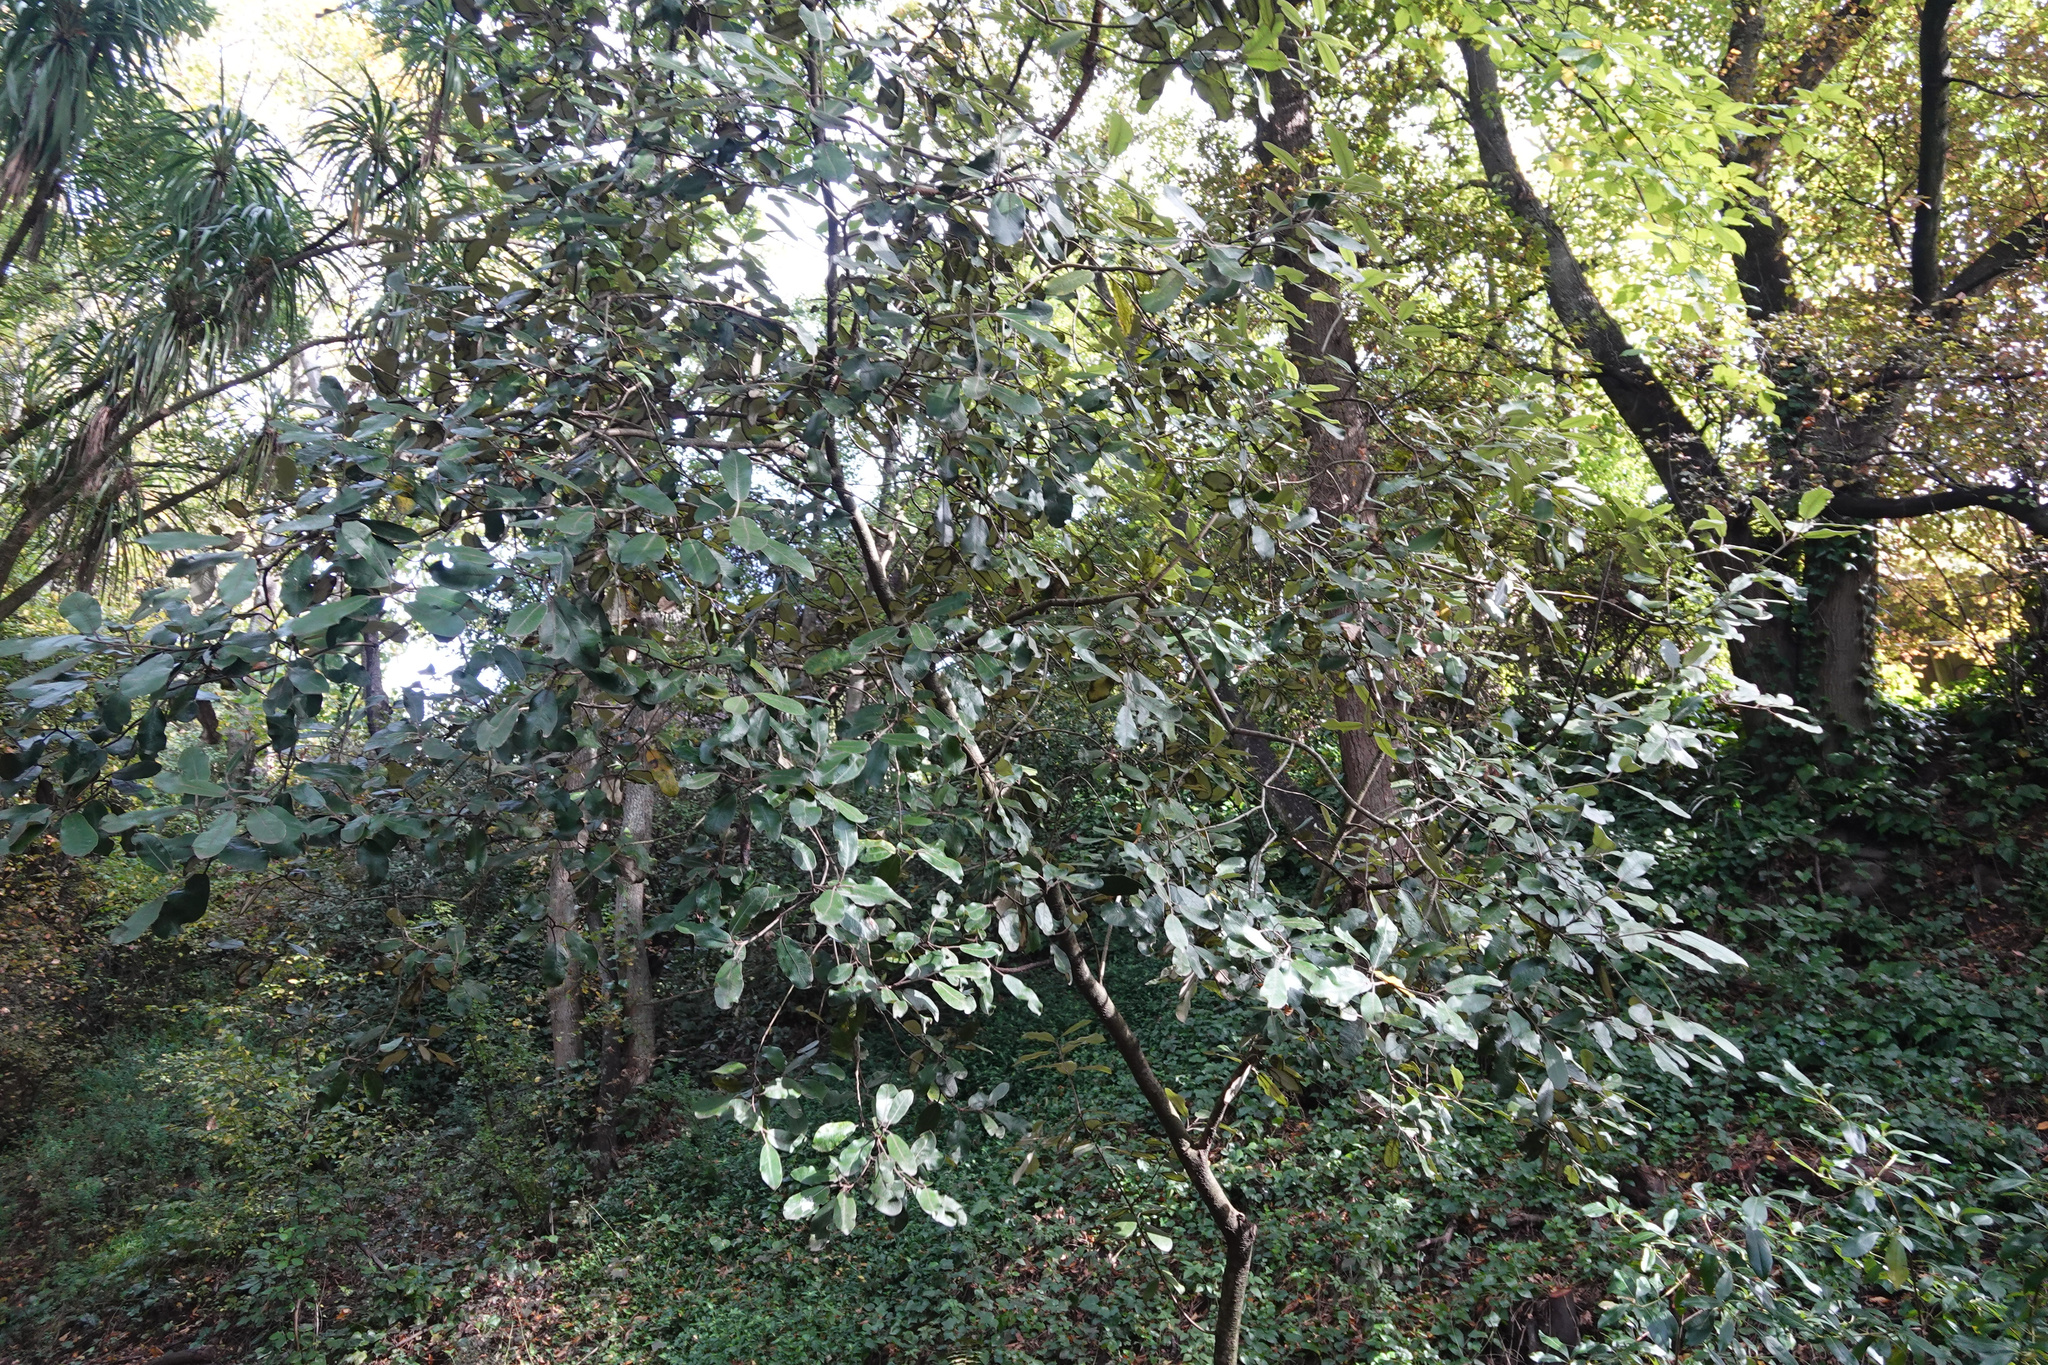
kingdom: Plantae
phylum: Tracheophyta
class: Magnoliopsida
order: Apiales
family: Pittosporaceae
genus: Pittosporum
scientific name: Pittosporum ralphii
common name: Ralph's desertwillow
